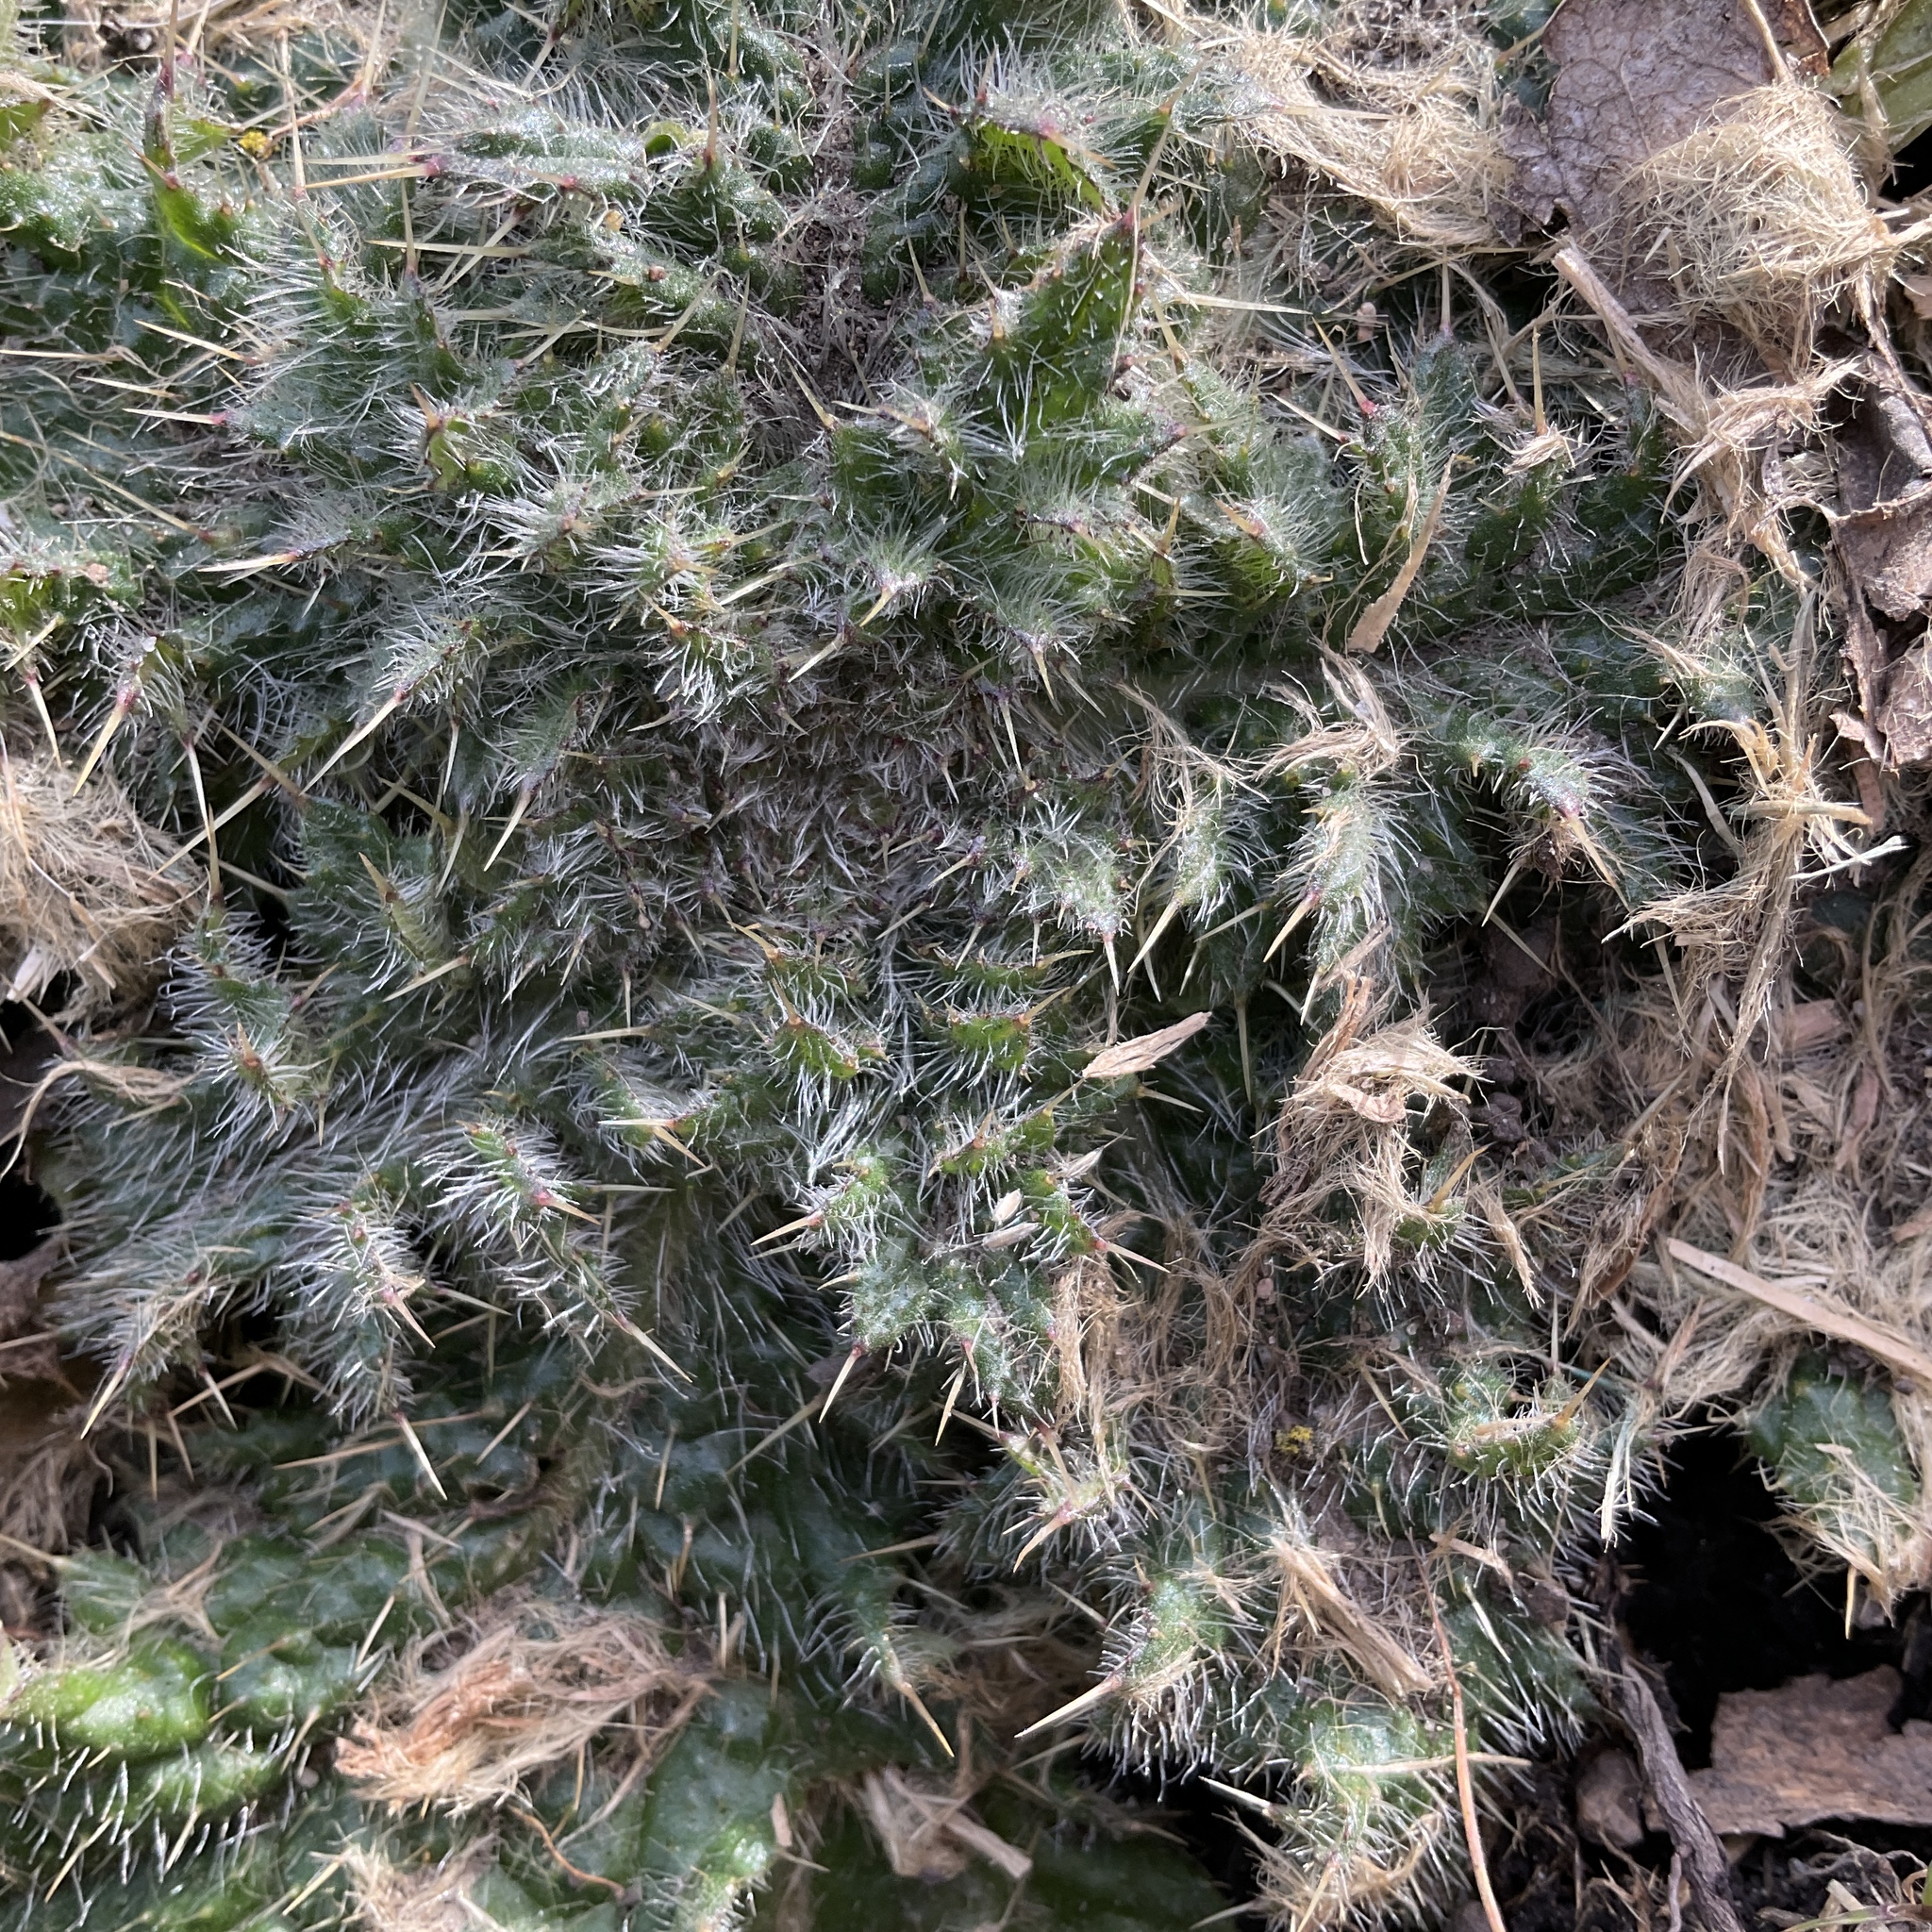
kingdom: Plantae
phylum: Tracheophyta
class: Magnoliopsida
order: Asterales
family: Asteraceae
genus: Cirsium
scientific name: Cirsium vulgare
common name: Bull thistle
